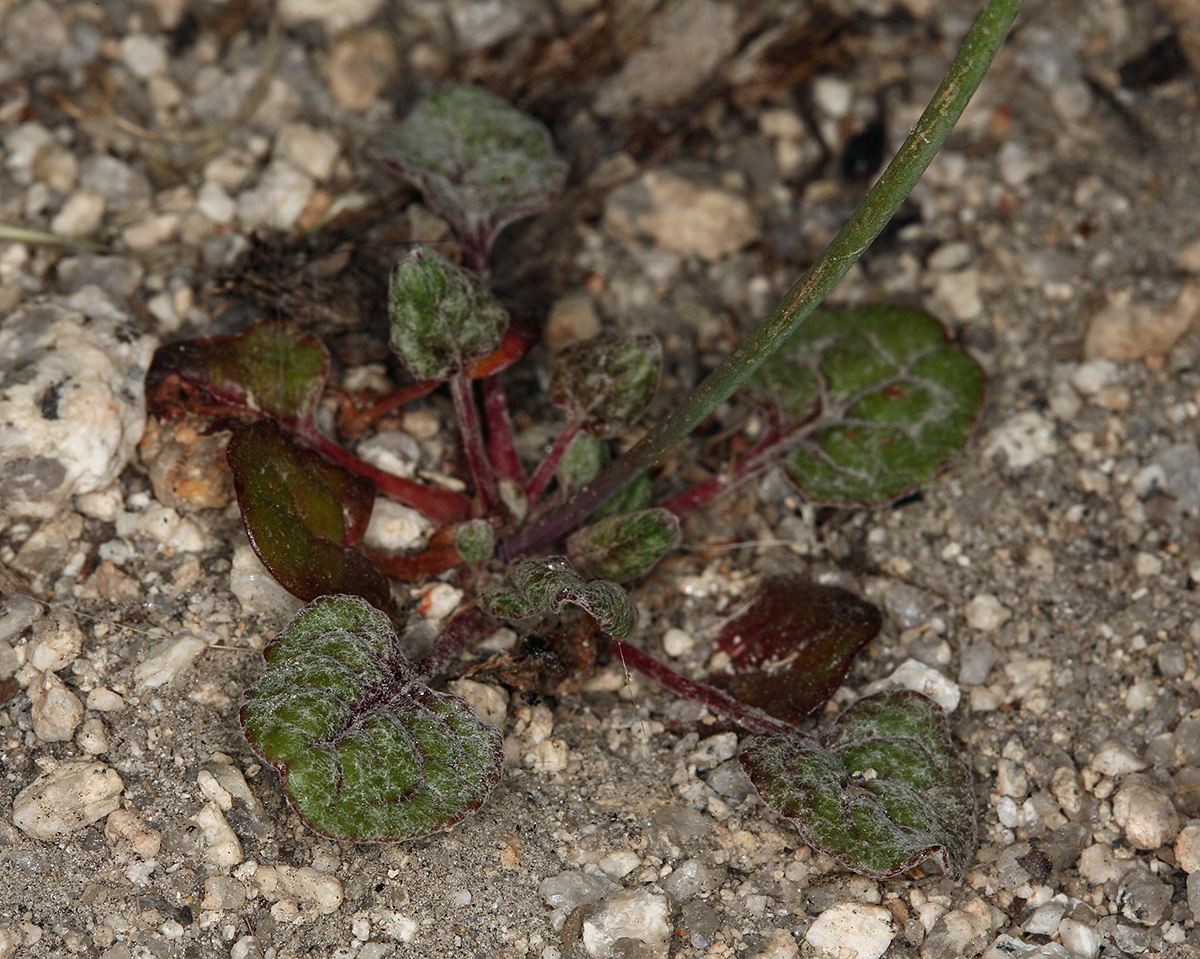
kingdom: Plantae
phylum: Tracheophyta
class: Magnoliopsida
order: Caryophyllales
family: Polygonaceae
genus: Eriogonum
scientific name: Eriogonum nudum
